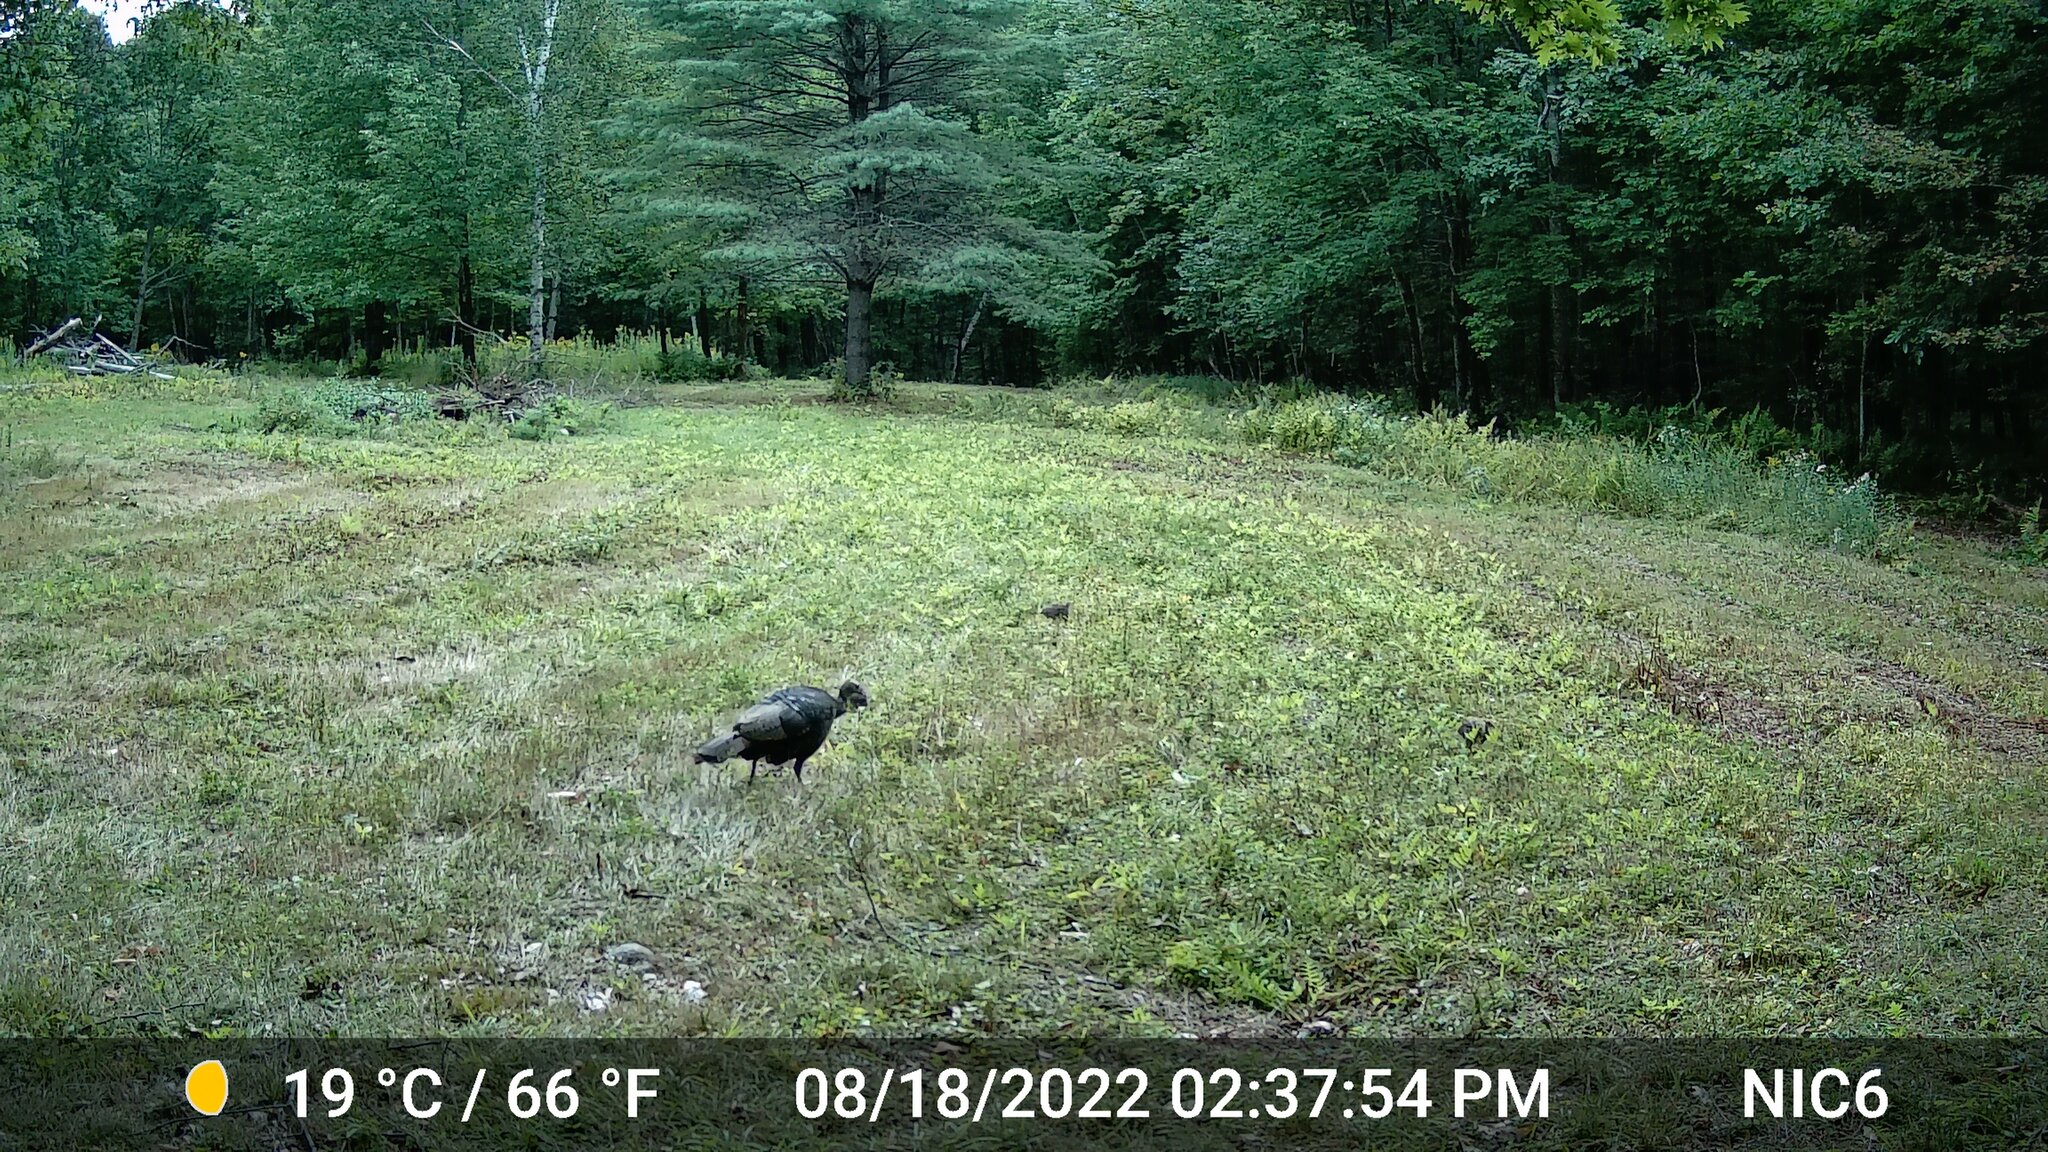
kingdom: Animalia
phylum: Chordata
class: Aves
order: Galliformes
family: Phasianidae
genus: Meleagris
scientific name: Meleagris gallopavo
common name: Wild turkey
